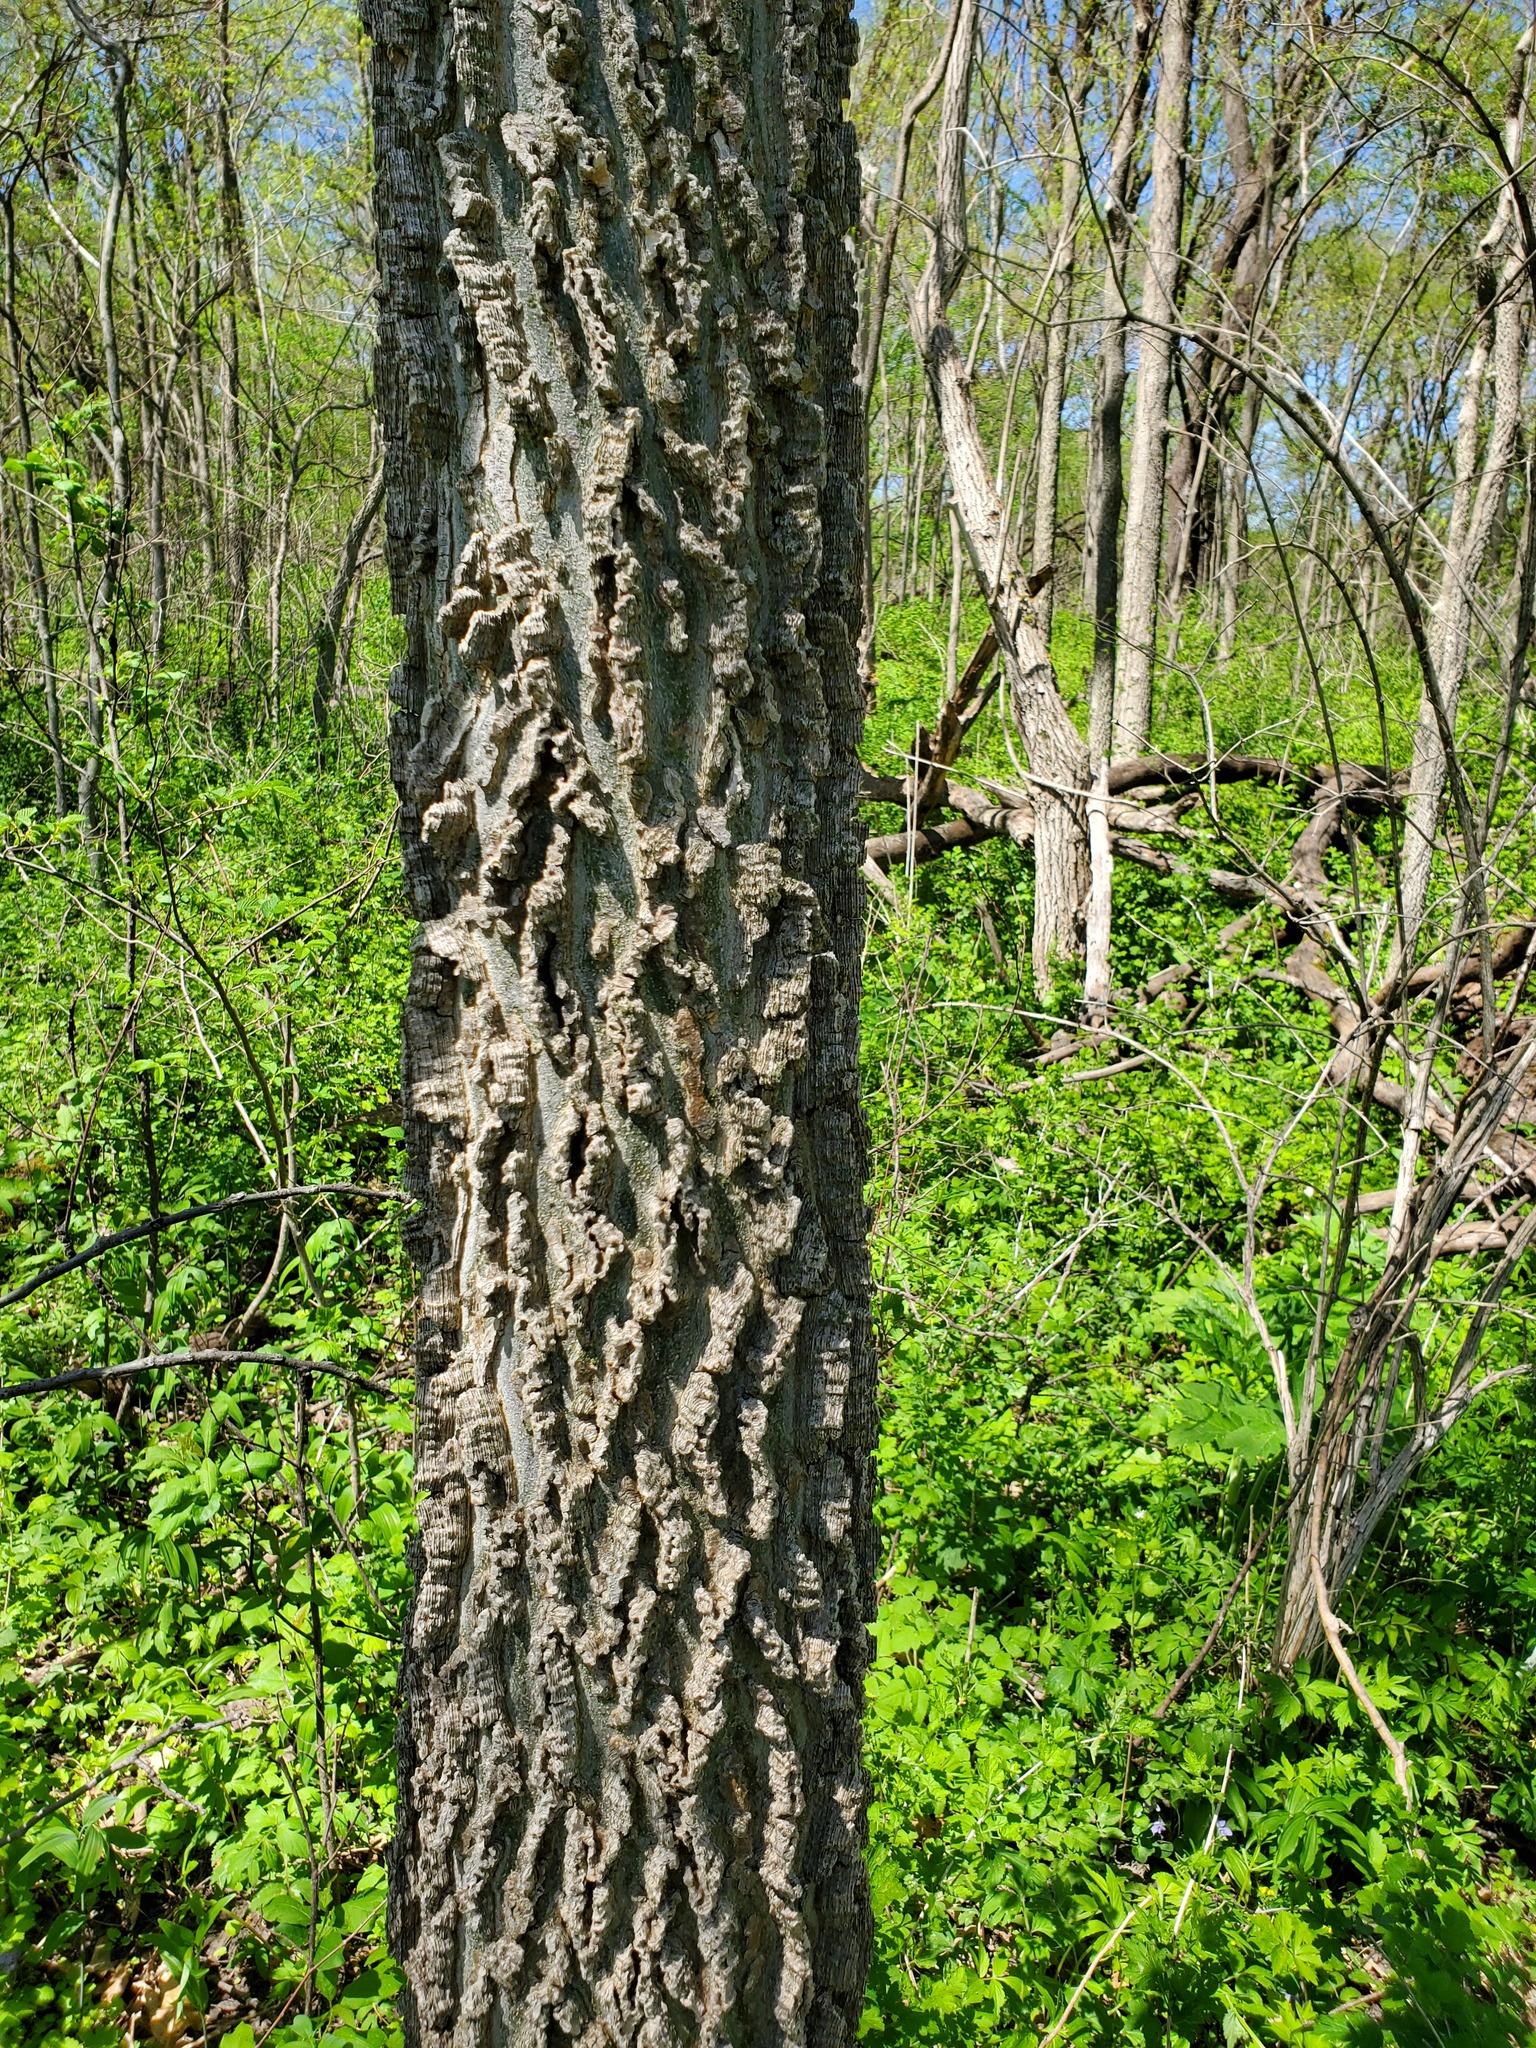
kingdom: Plantae
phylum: Tracheophyta
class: Magnoliopsida
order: Rosales
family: Cannabaceae
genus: Celtis
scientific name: Celtis occidentalis
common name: Common hackberry
